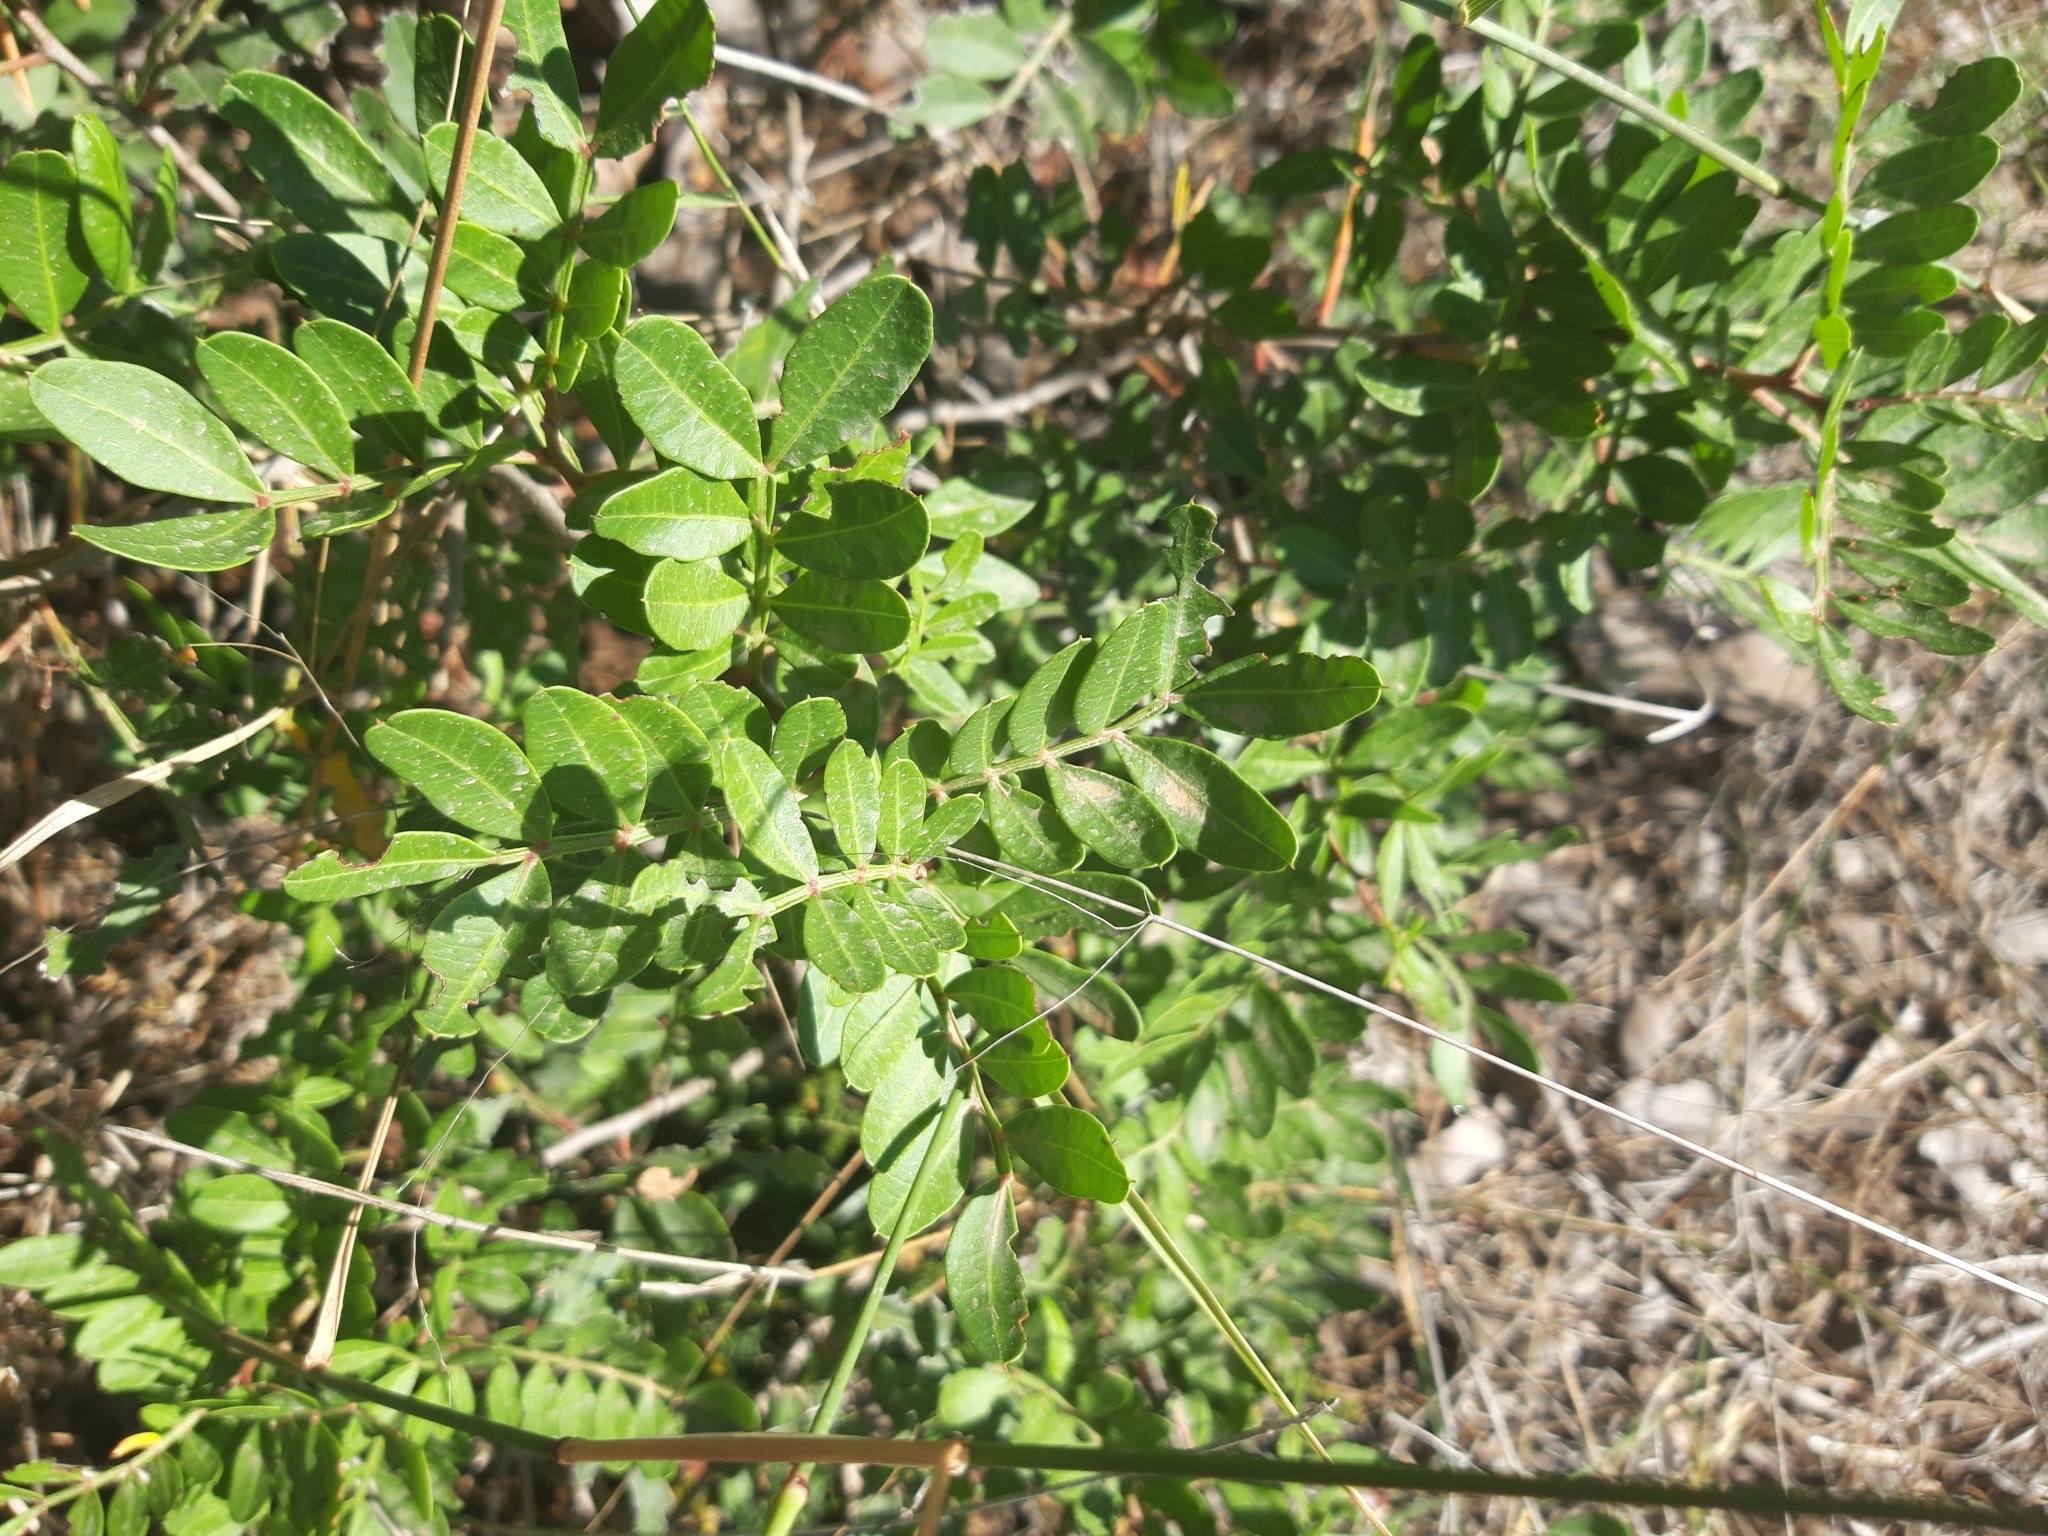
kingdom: Plantae
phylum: Tracheophyta
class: Magnoliopsida
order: Sapindales
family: Anacardiaceae
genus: Pistacia
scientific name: Pistacia lentiscus
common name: Lentisk
